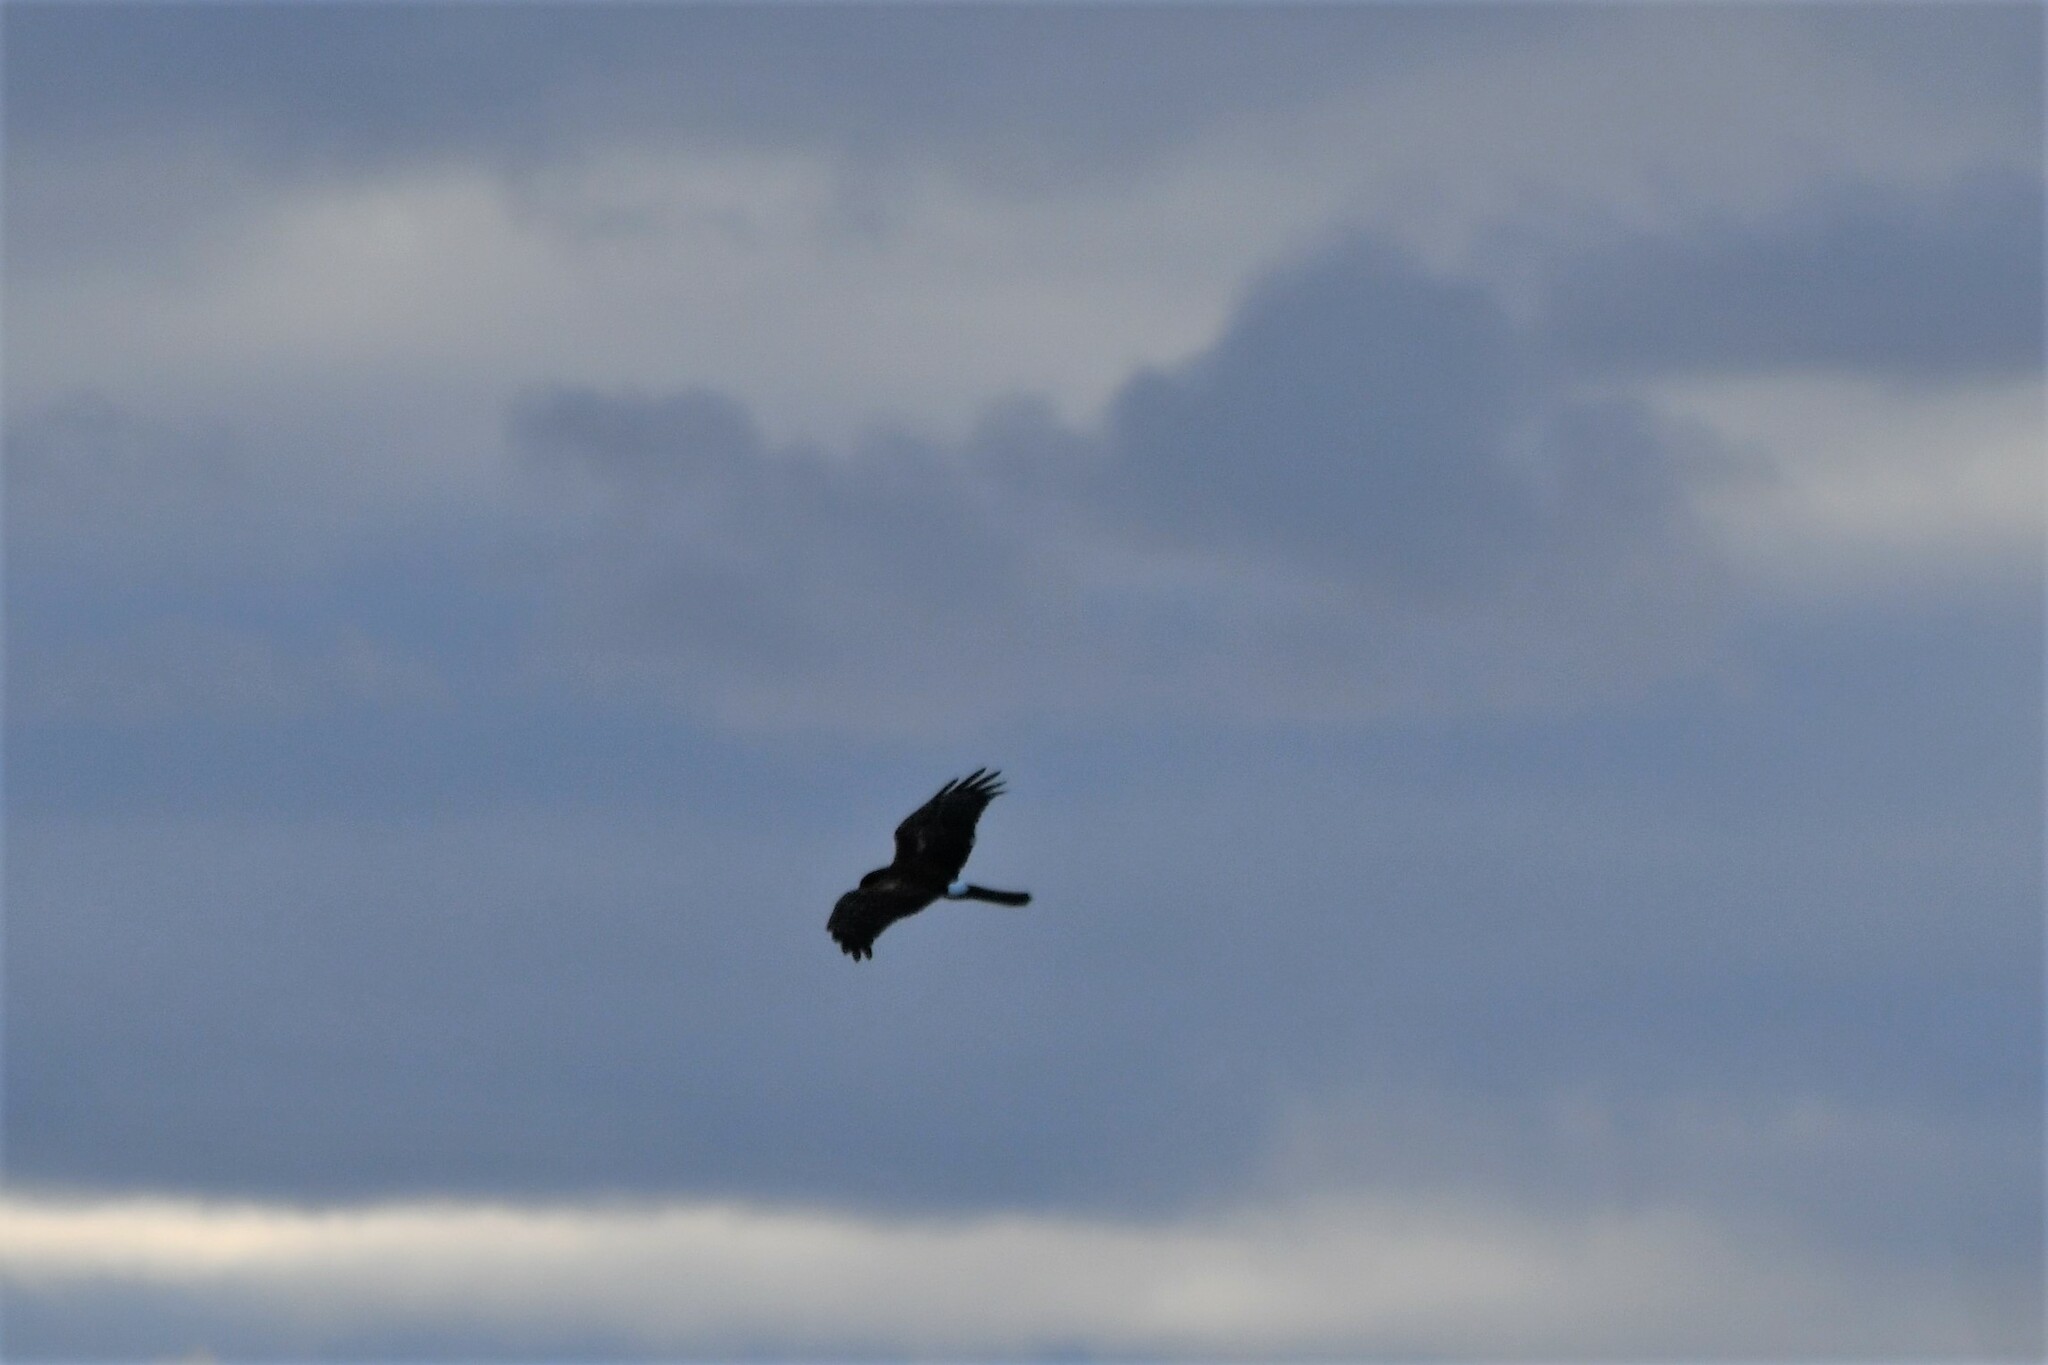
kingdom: Animalia
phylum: Chordata
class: Aves
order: Accipitriformes
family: Accipitridae
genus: Circus
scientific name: Circus cyaneus
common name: Hen harrier
